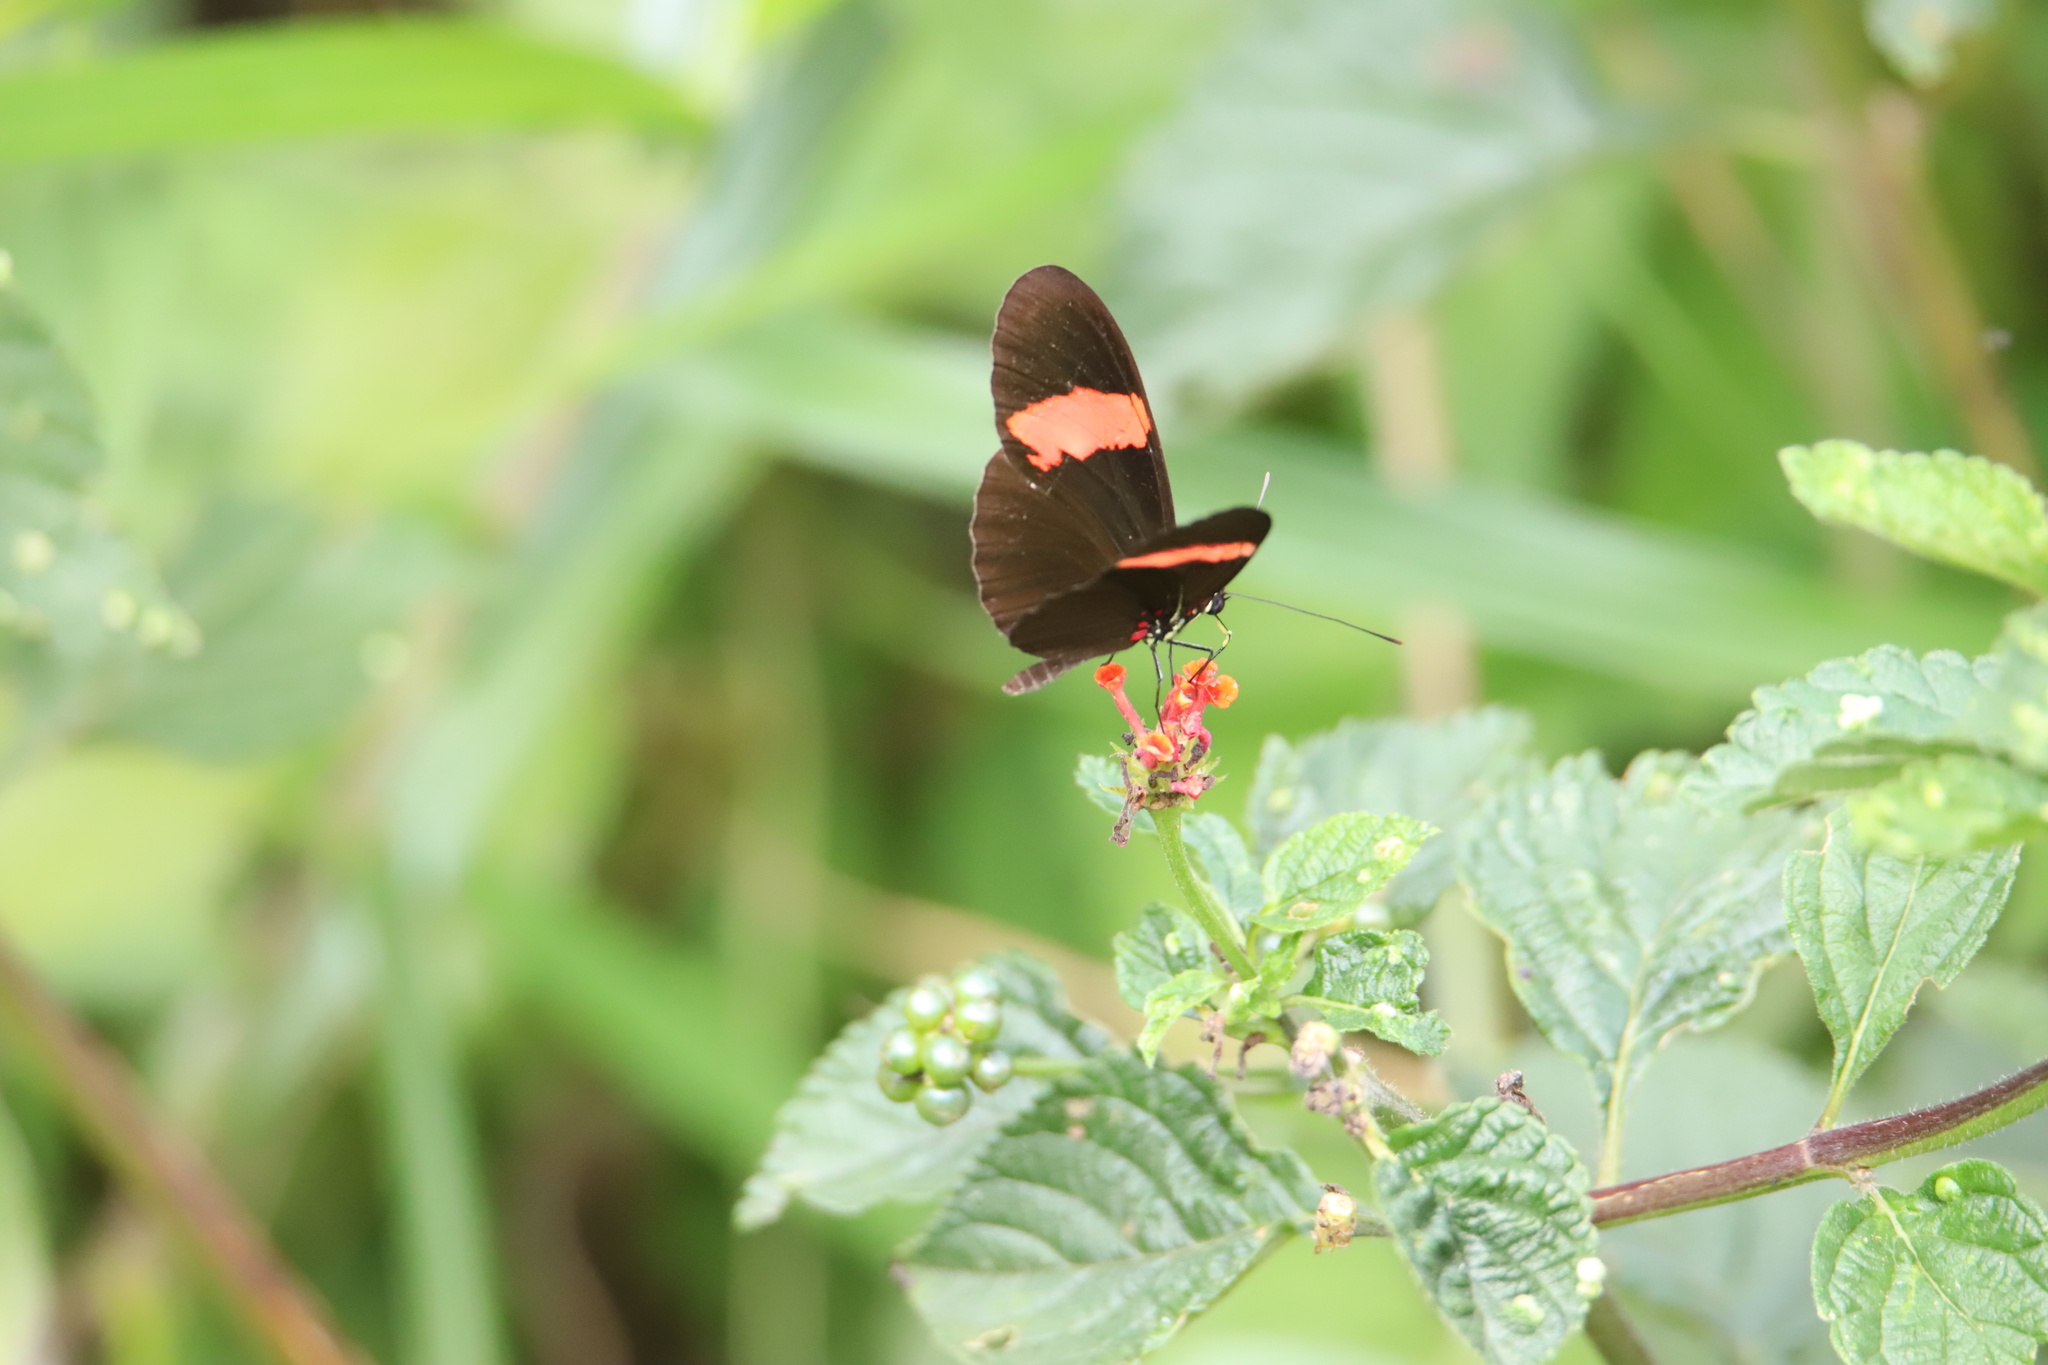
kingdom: Animalia
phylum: Arthropoda
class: Insecta
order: Lepidoptera
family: Nymphalidae
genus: Heliconius
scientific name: Heliconius erato
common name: Common patch longwing
